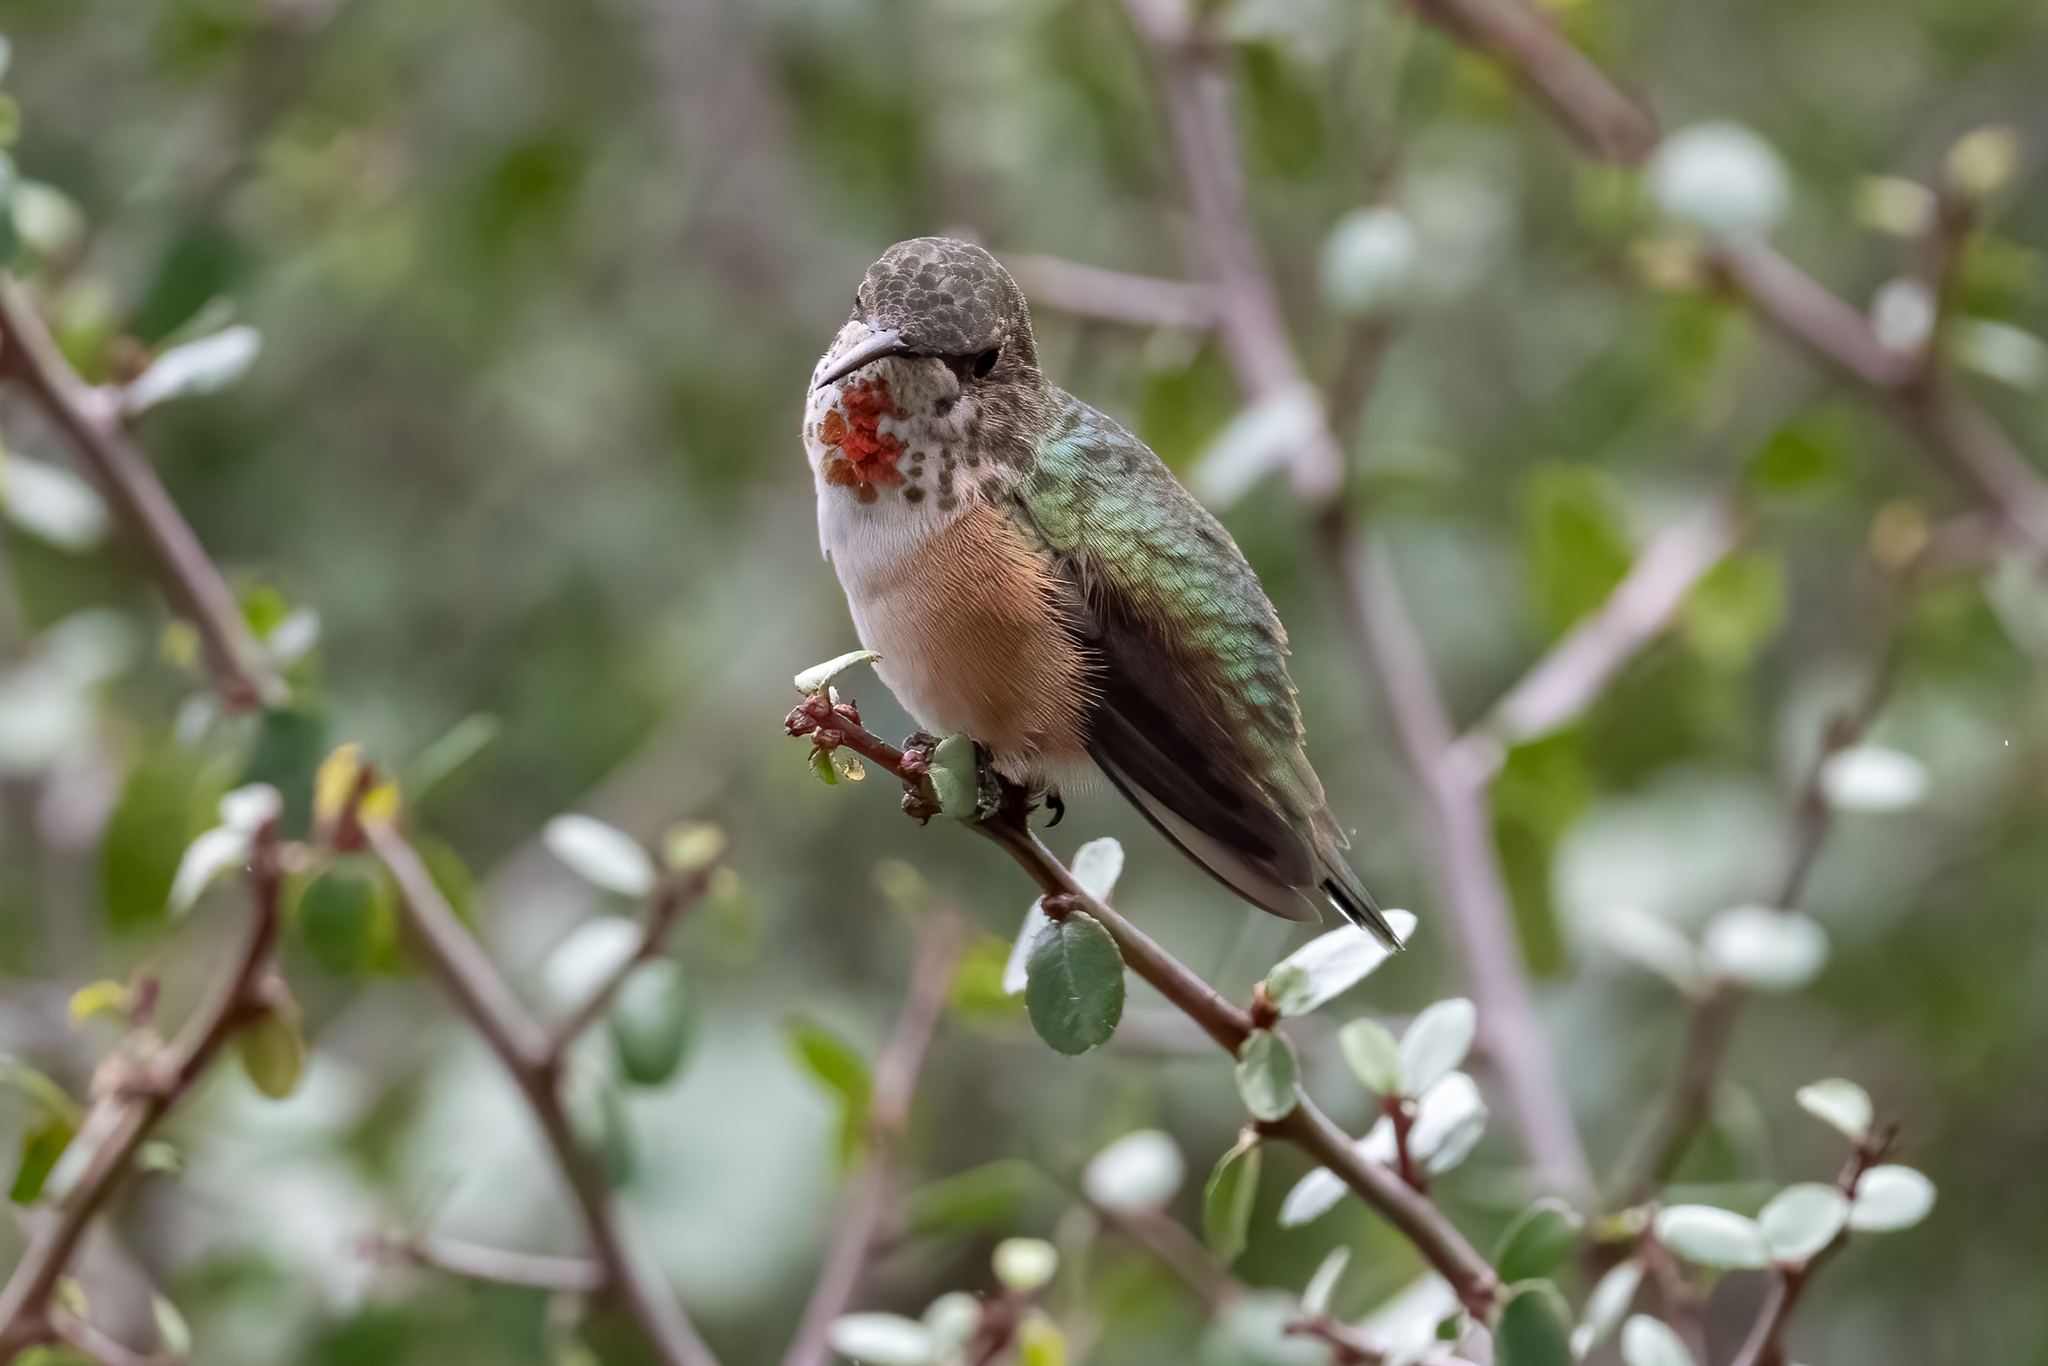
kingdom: Animalia
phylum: Chordata
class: Aves
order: Apodiformes
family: Trochilidae
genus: Selasphorus
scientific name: Selasphorus sasin
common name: Allen's hummingbird
